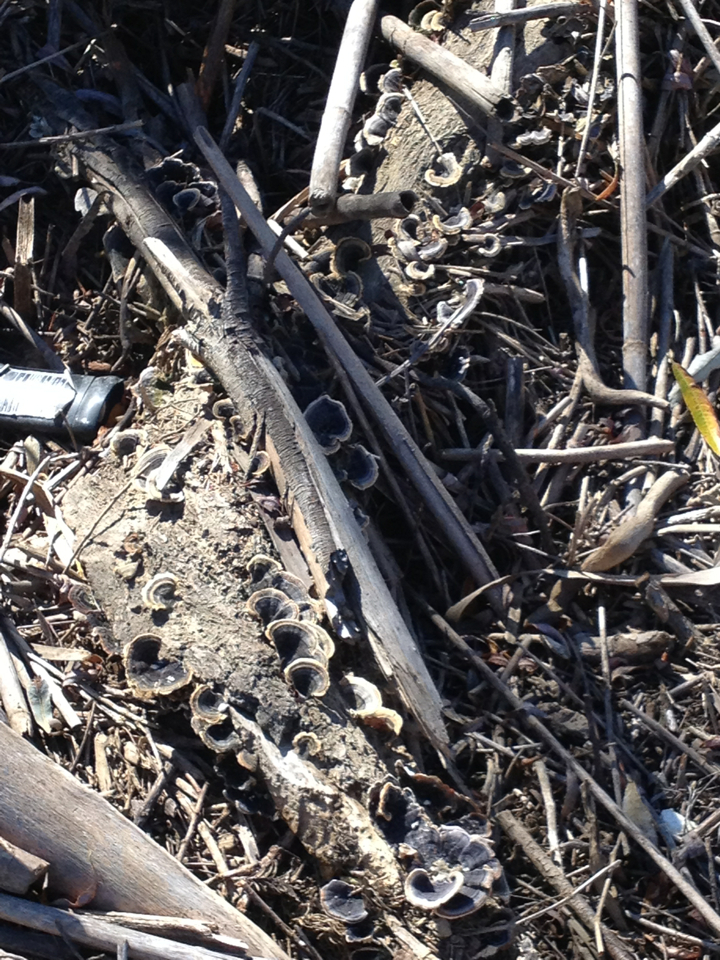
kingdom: Fungi
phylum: Basidiomycota
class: Agaricomycetes
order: Polyporales
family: Polyporaceae
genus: Trametes
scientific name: Trametes versicolor
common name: Turkeytail
